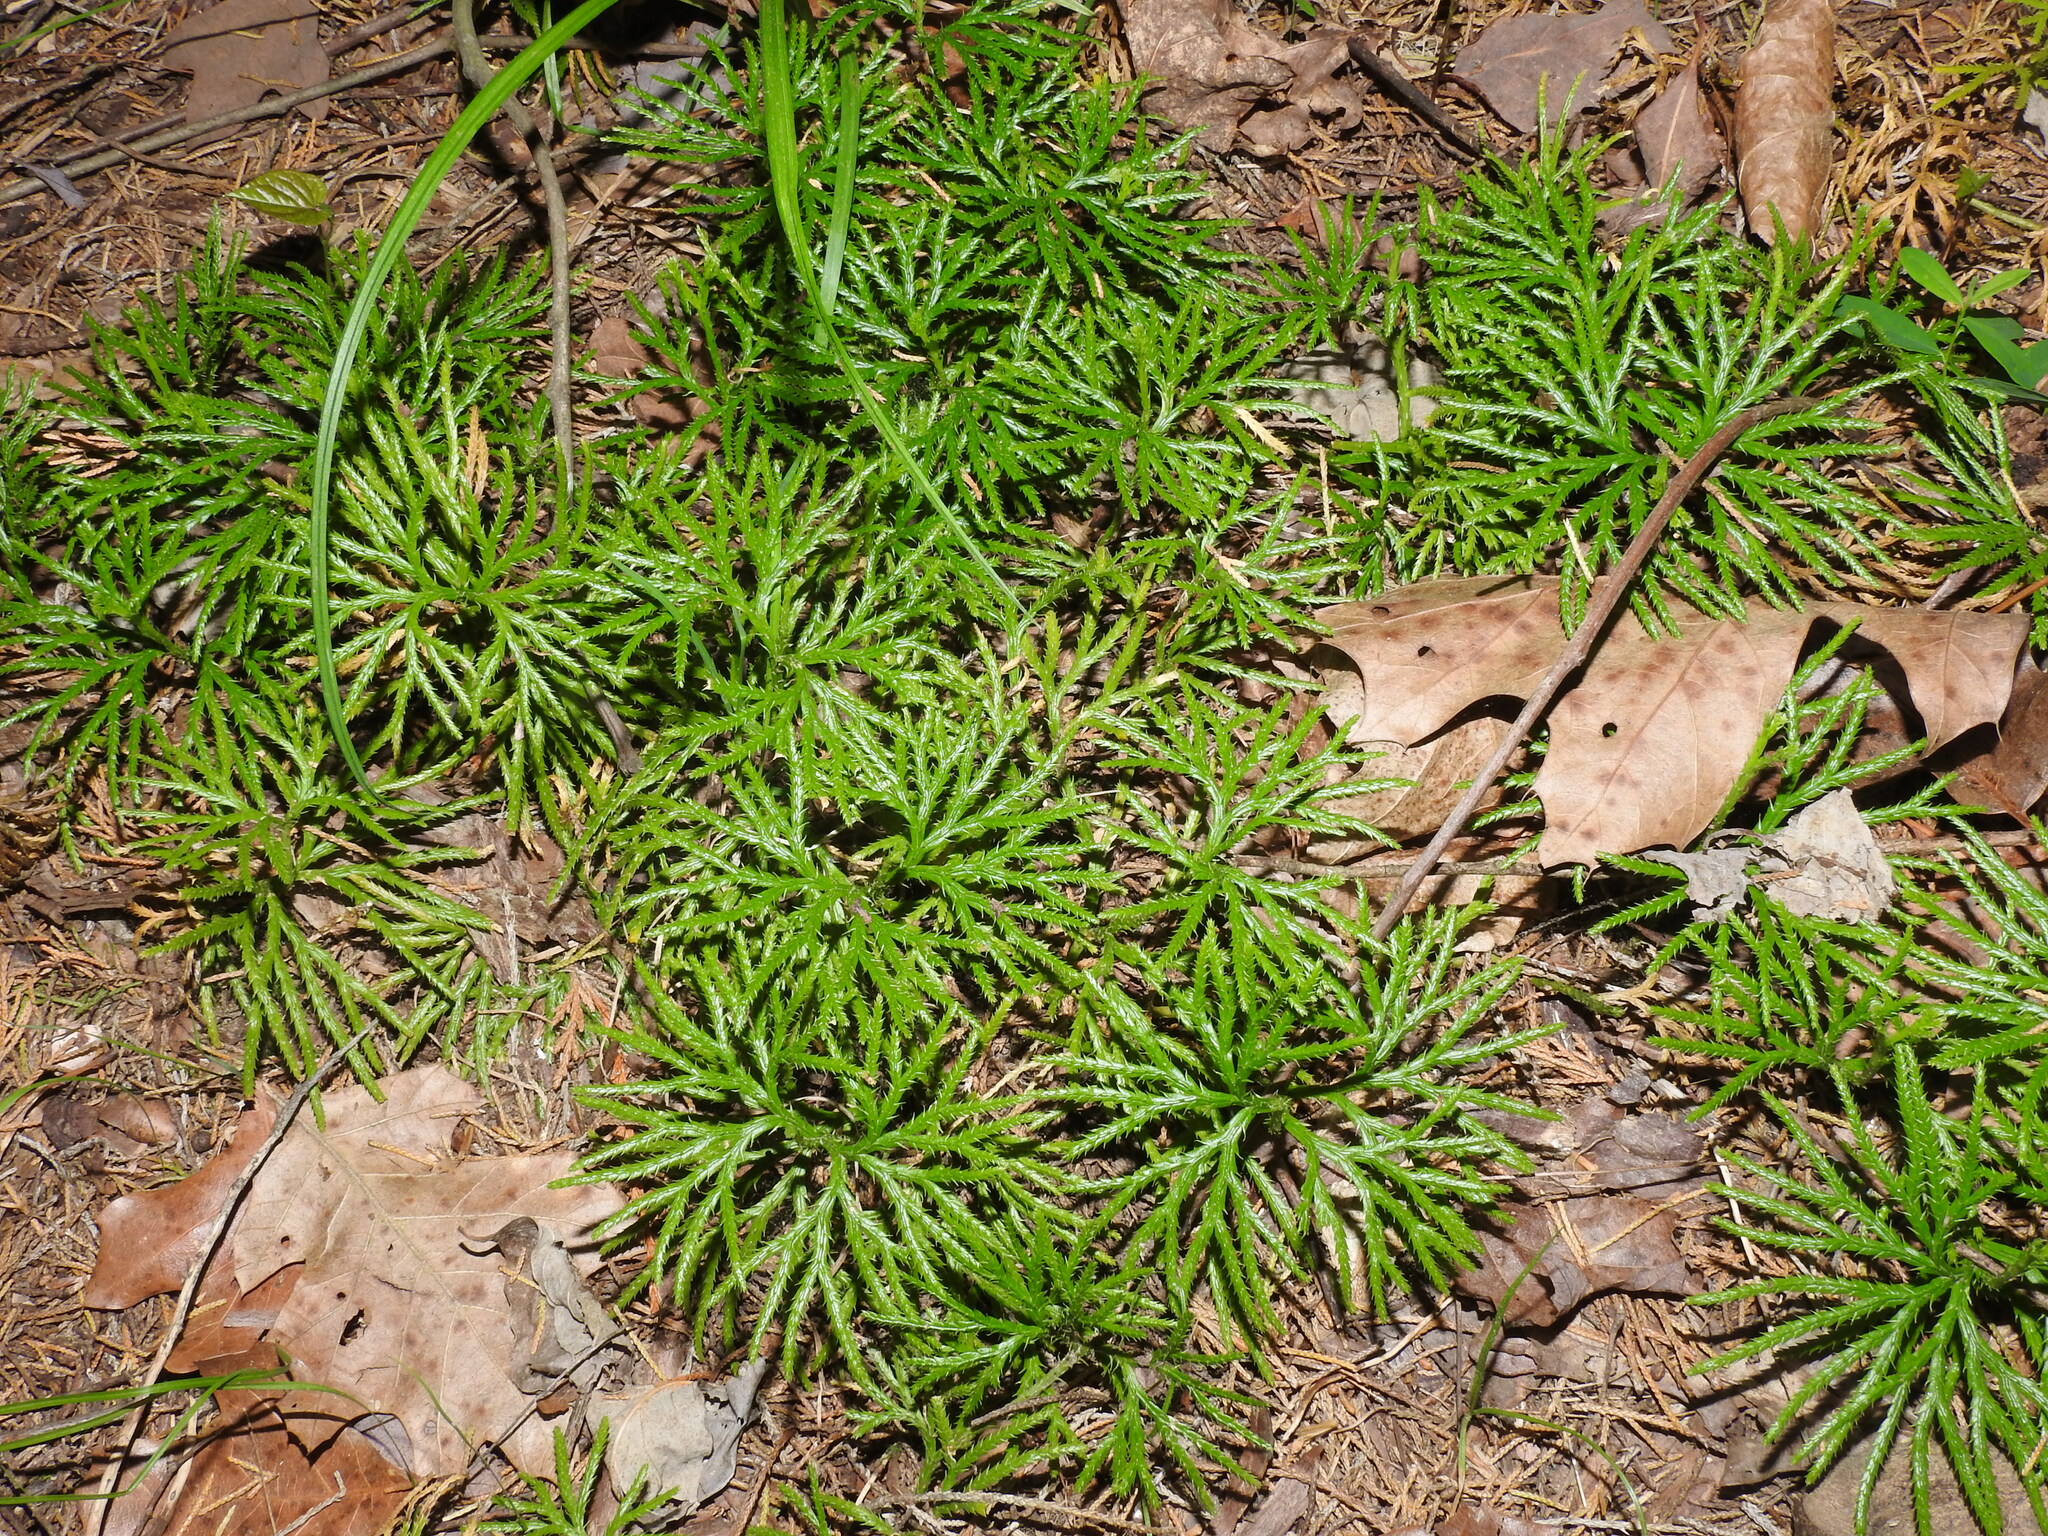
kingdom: Plantae
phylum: Tracheophyta
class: Lycopodiopsida
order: Lycopodiales
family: Lycopodiaceae
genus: Diphasiastrum
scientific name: Diphasiastrum digitatum
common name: Southern running-pine
